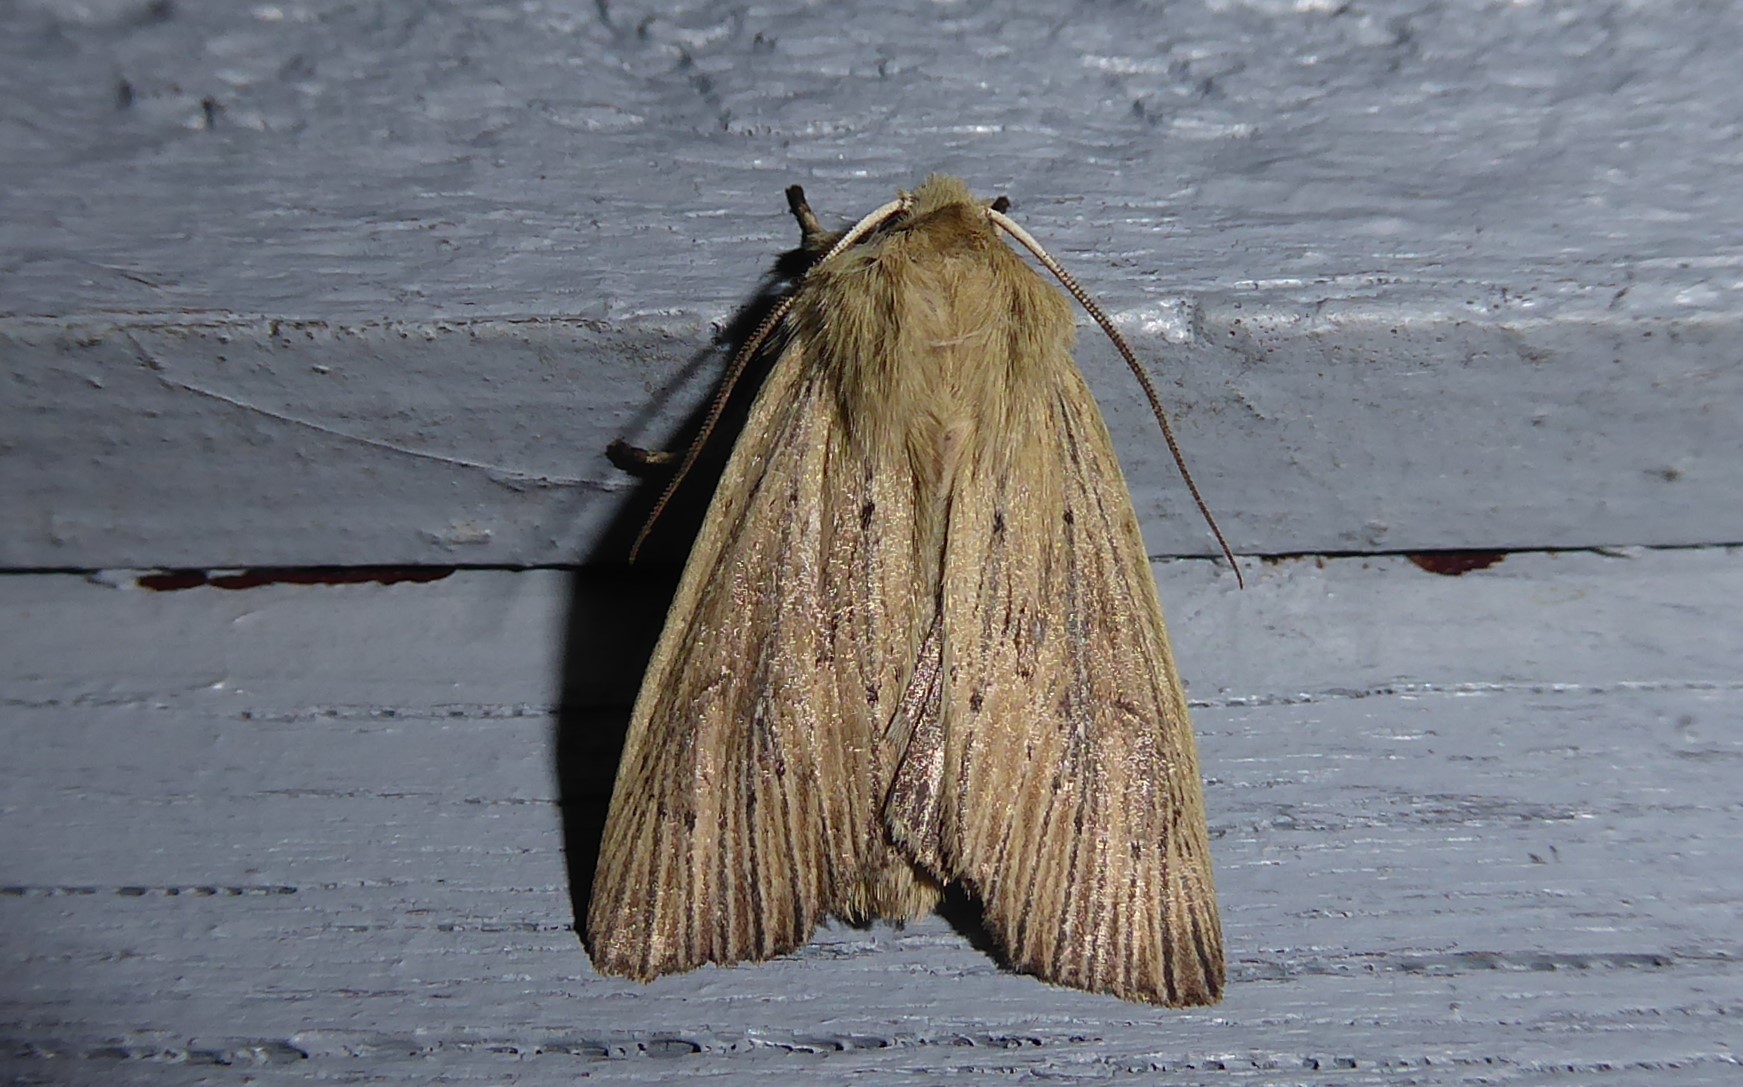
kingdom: Animalia
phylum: Arthropoda
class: Insecta
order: Lepidoptera
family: Noctuidae
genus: Ichneutica
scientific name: Ichneutica arotis
